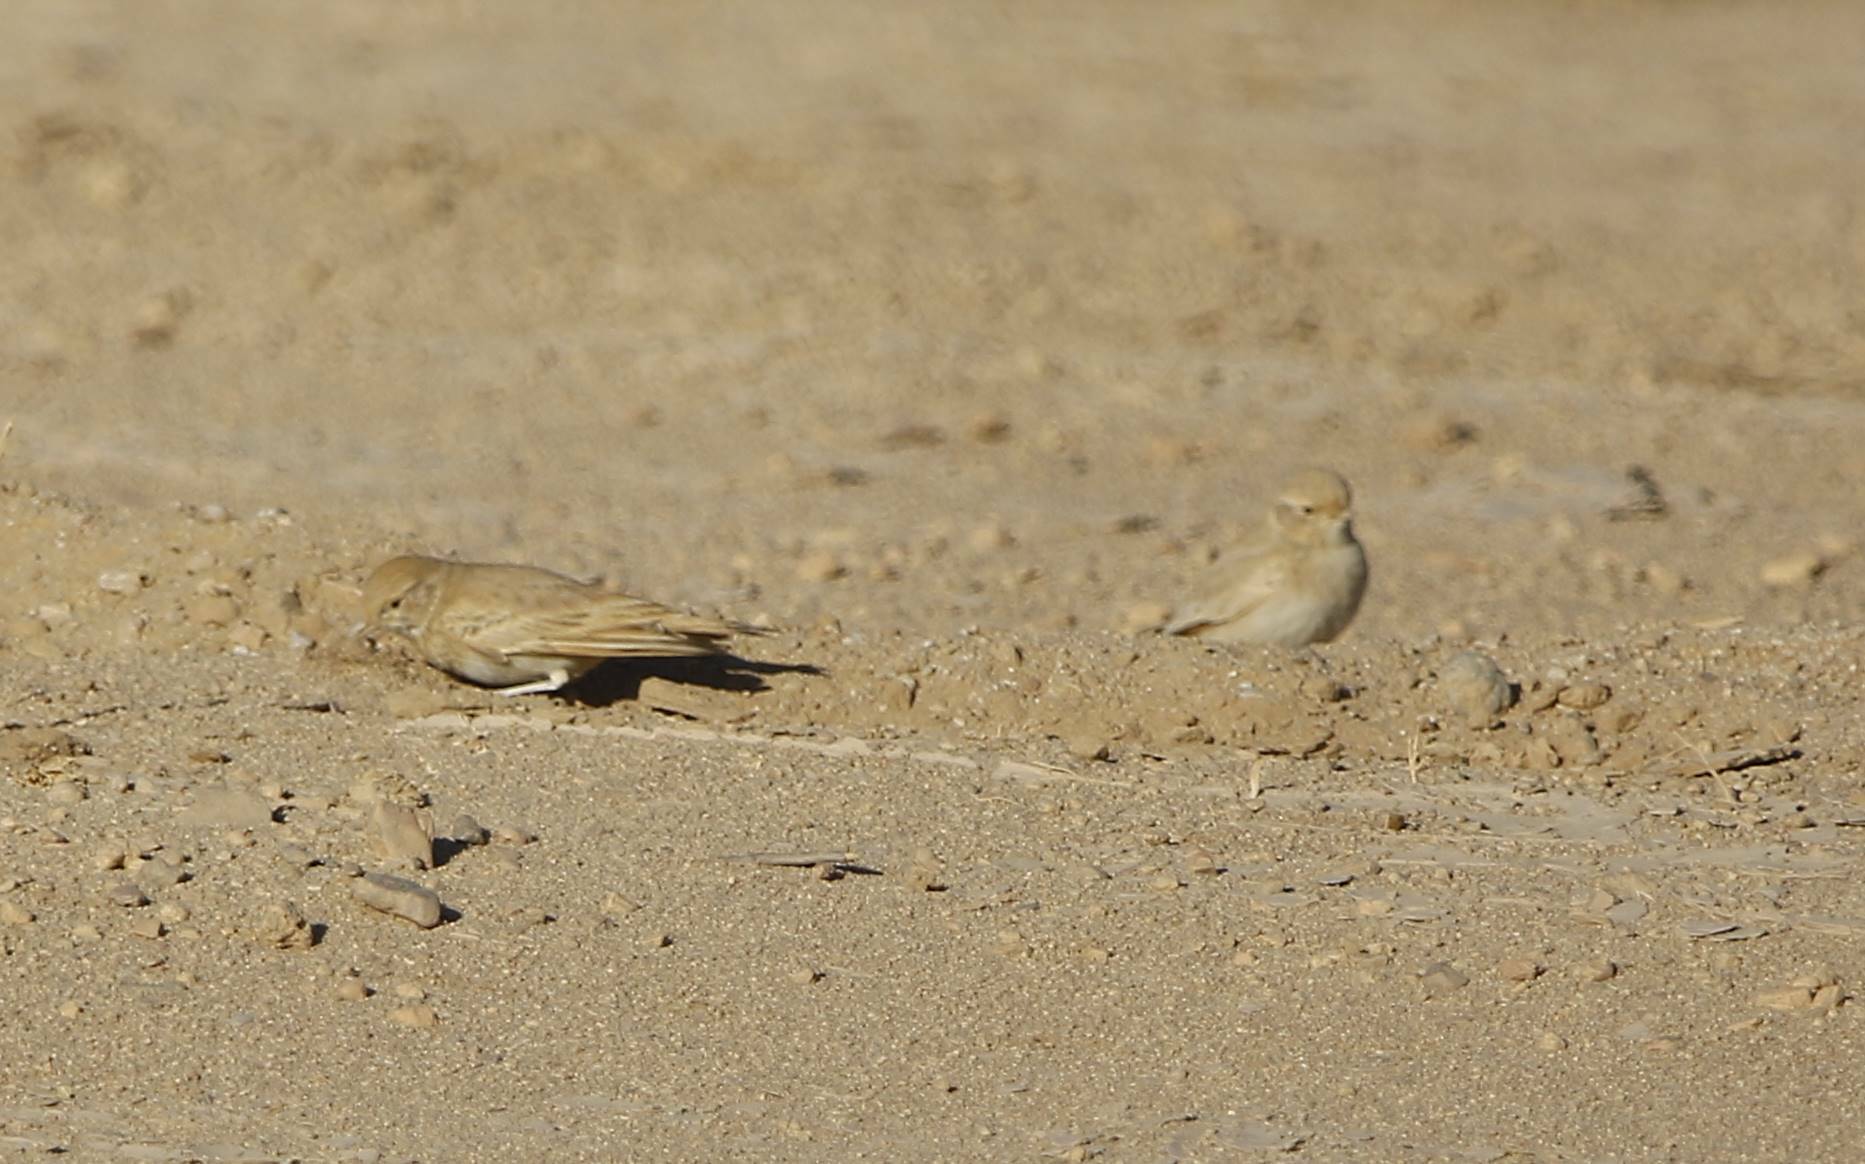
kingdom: Animalia
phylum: Chordata
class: Aves
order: Passeriformes
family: Alaudidae
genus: Ammomanes
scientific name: Ammomanes cinctura
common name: Bar-tailed lark
